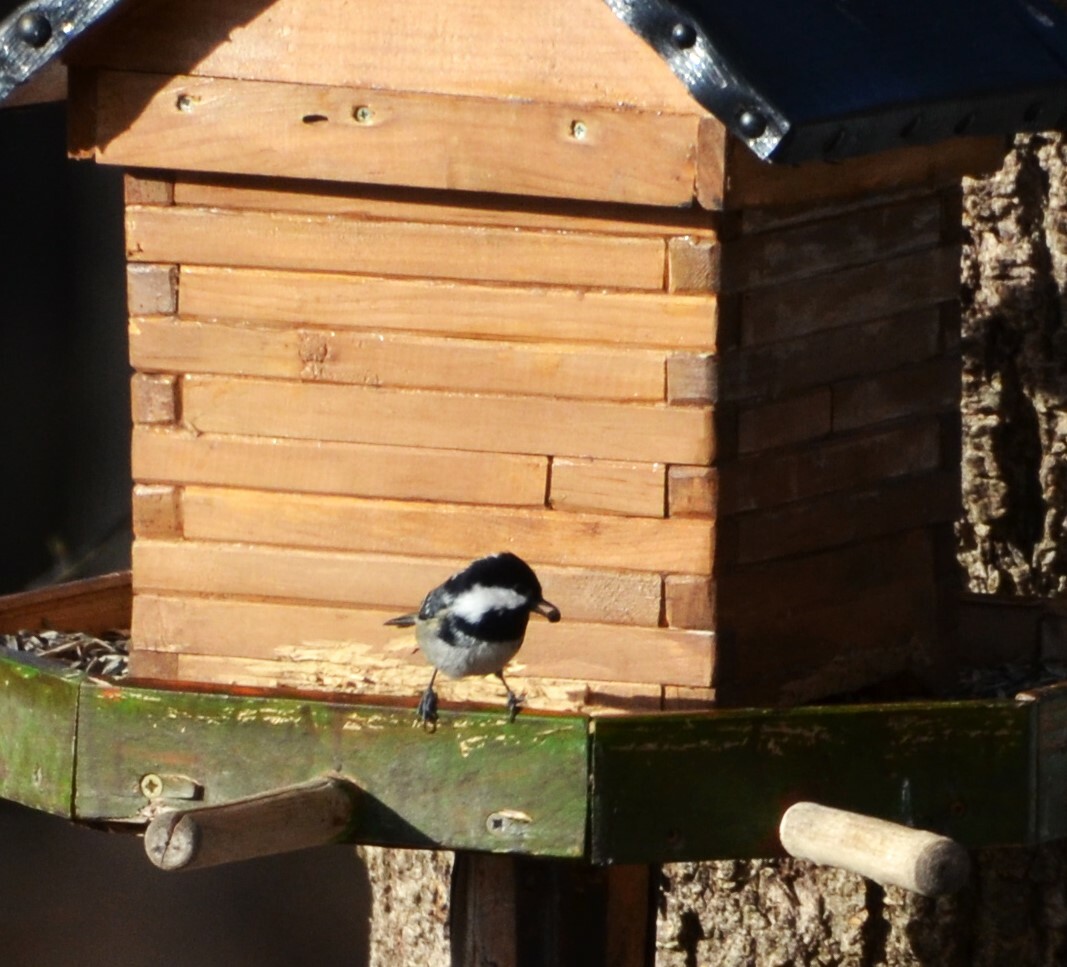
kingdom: Animalia
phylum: Chordata
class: Aves
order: Passeriformes
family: Paridae
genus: Periparus
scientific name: Periparus ater
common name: Coal tit
